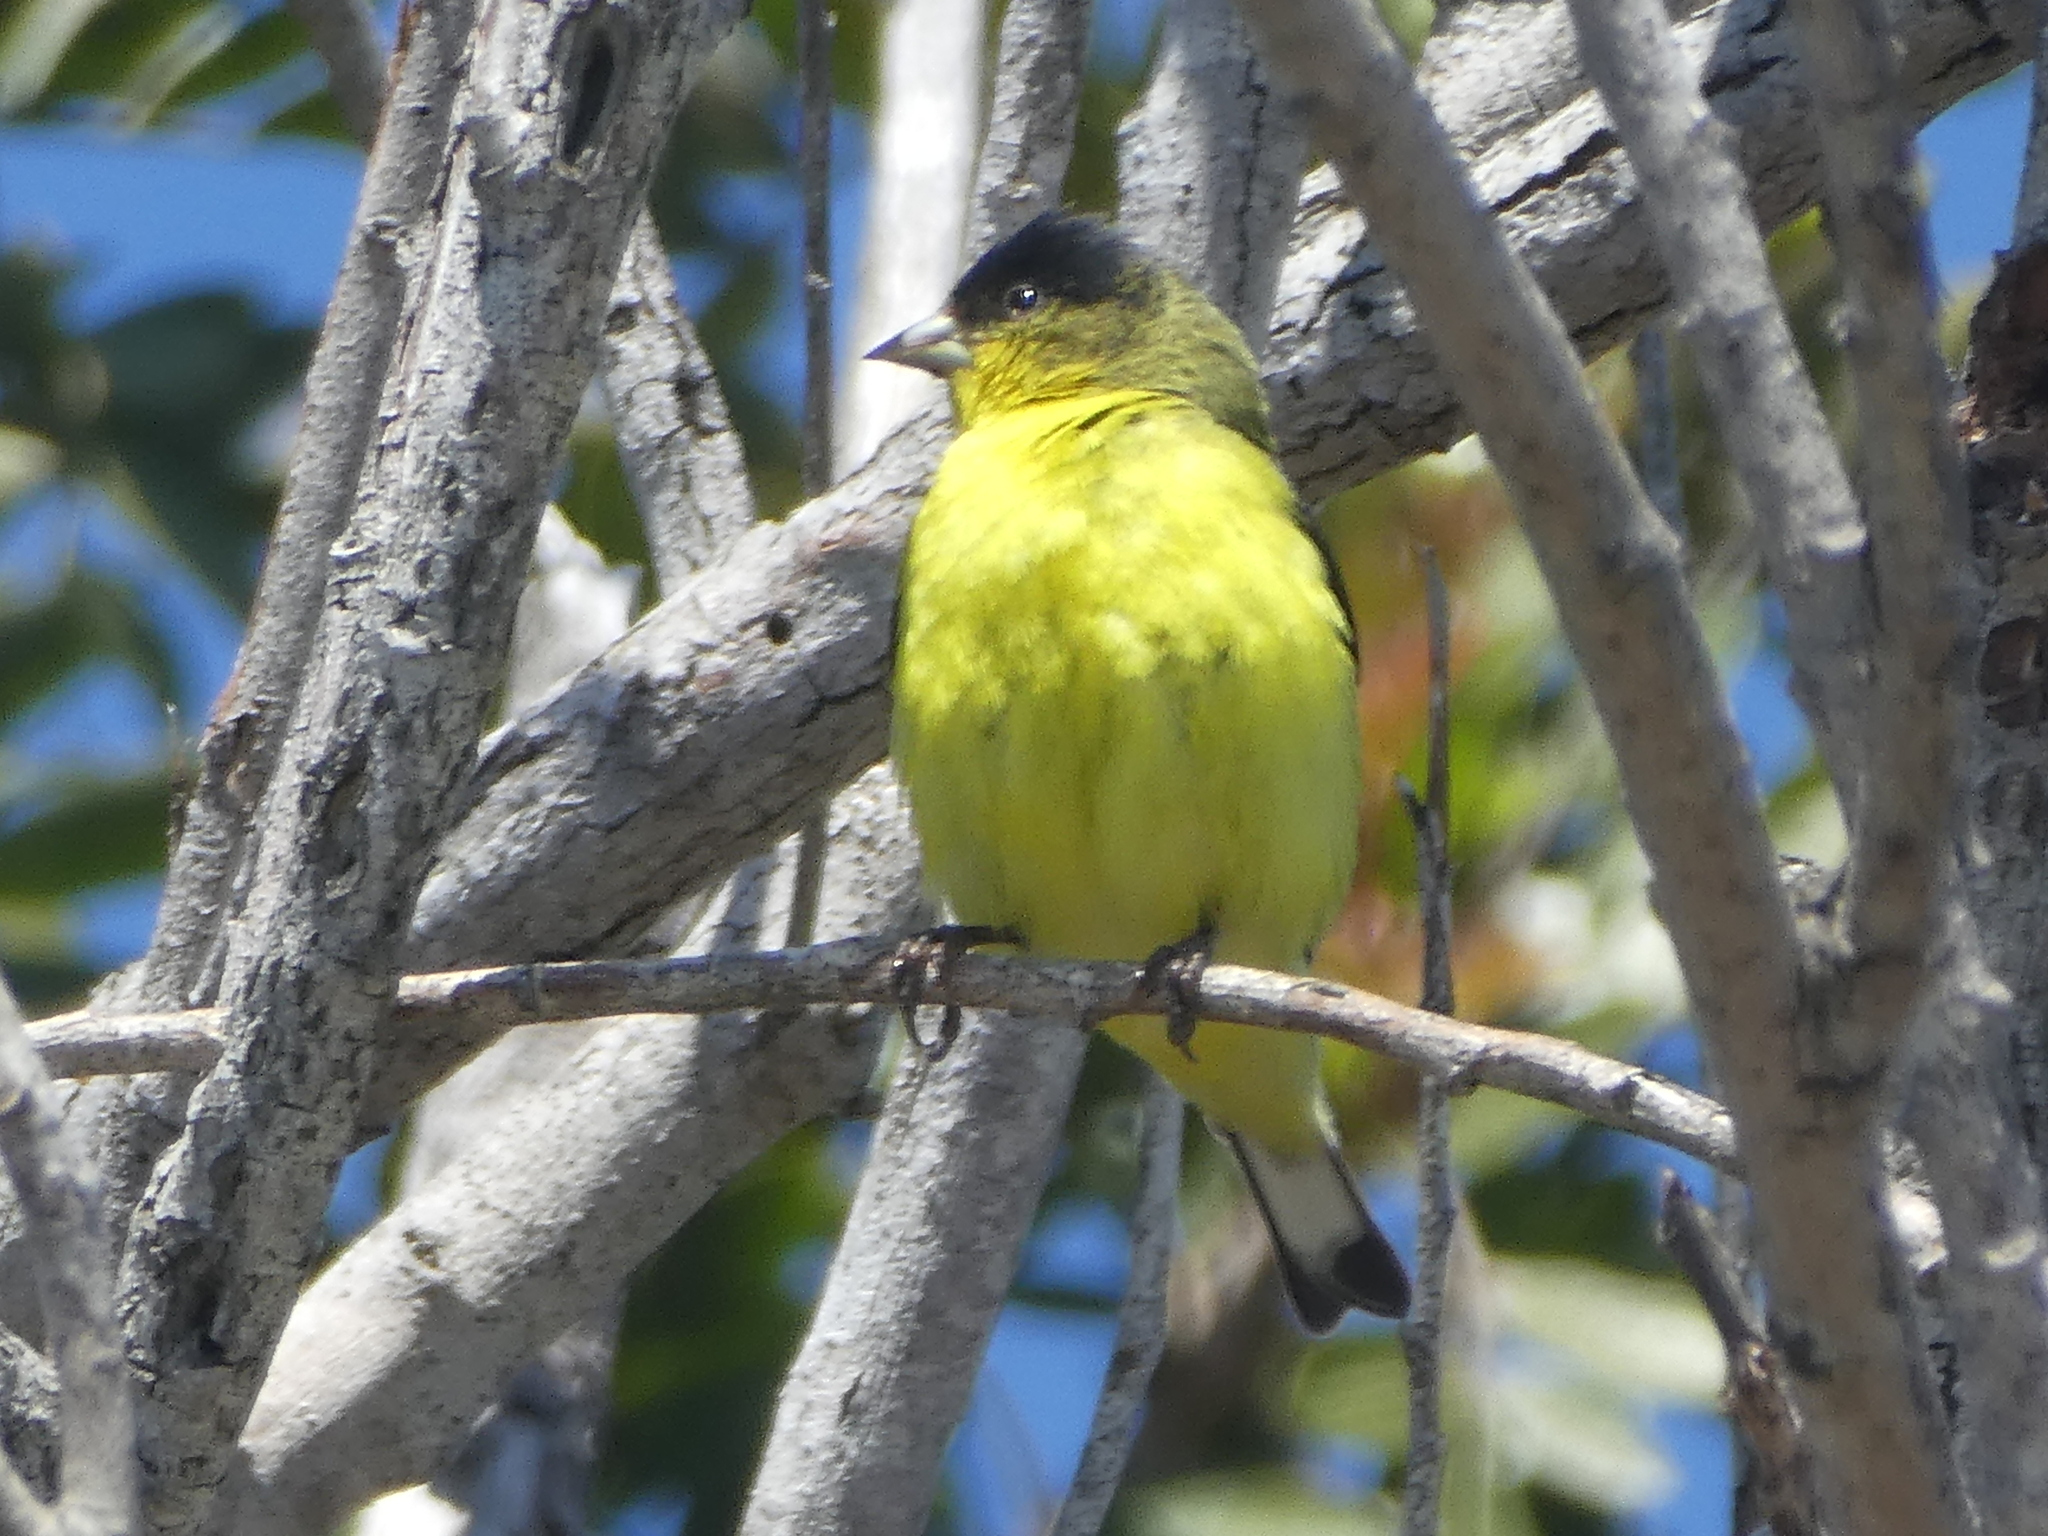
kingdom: Animalia
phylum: Chordata
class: Aves
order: Passeriformes
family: Fringillidae
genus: Spinus
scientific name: Spinus psaltria
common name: Lesser goldfinch
